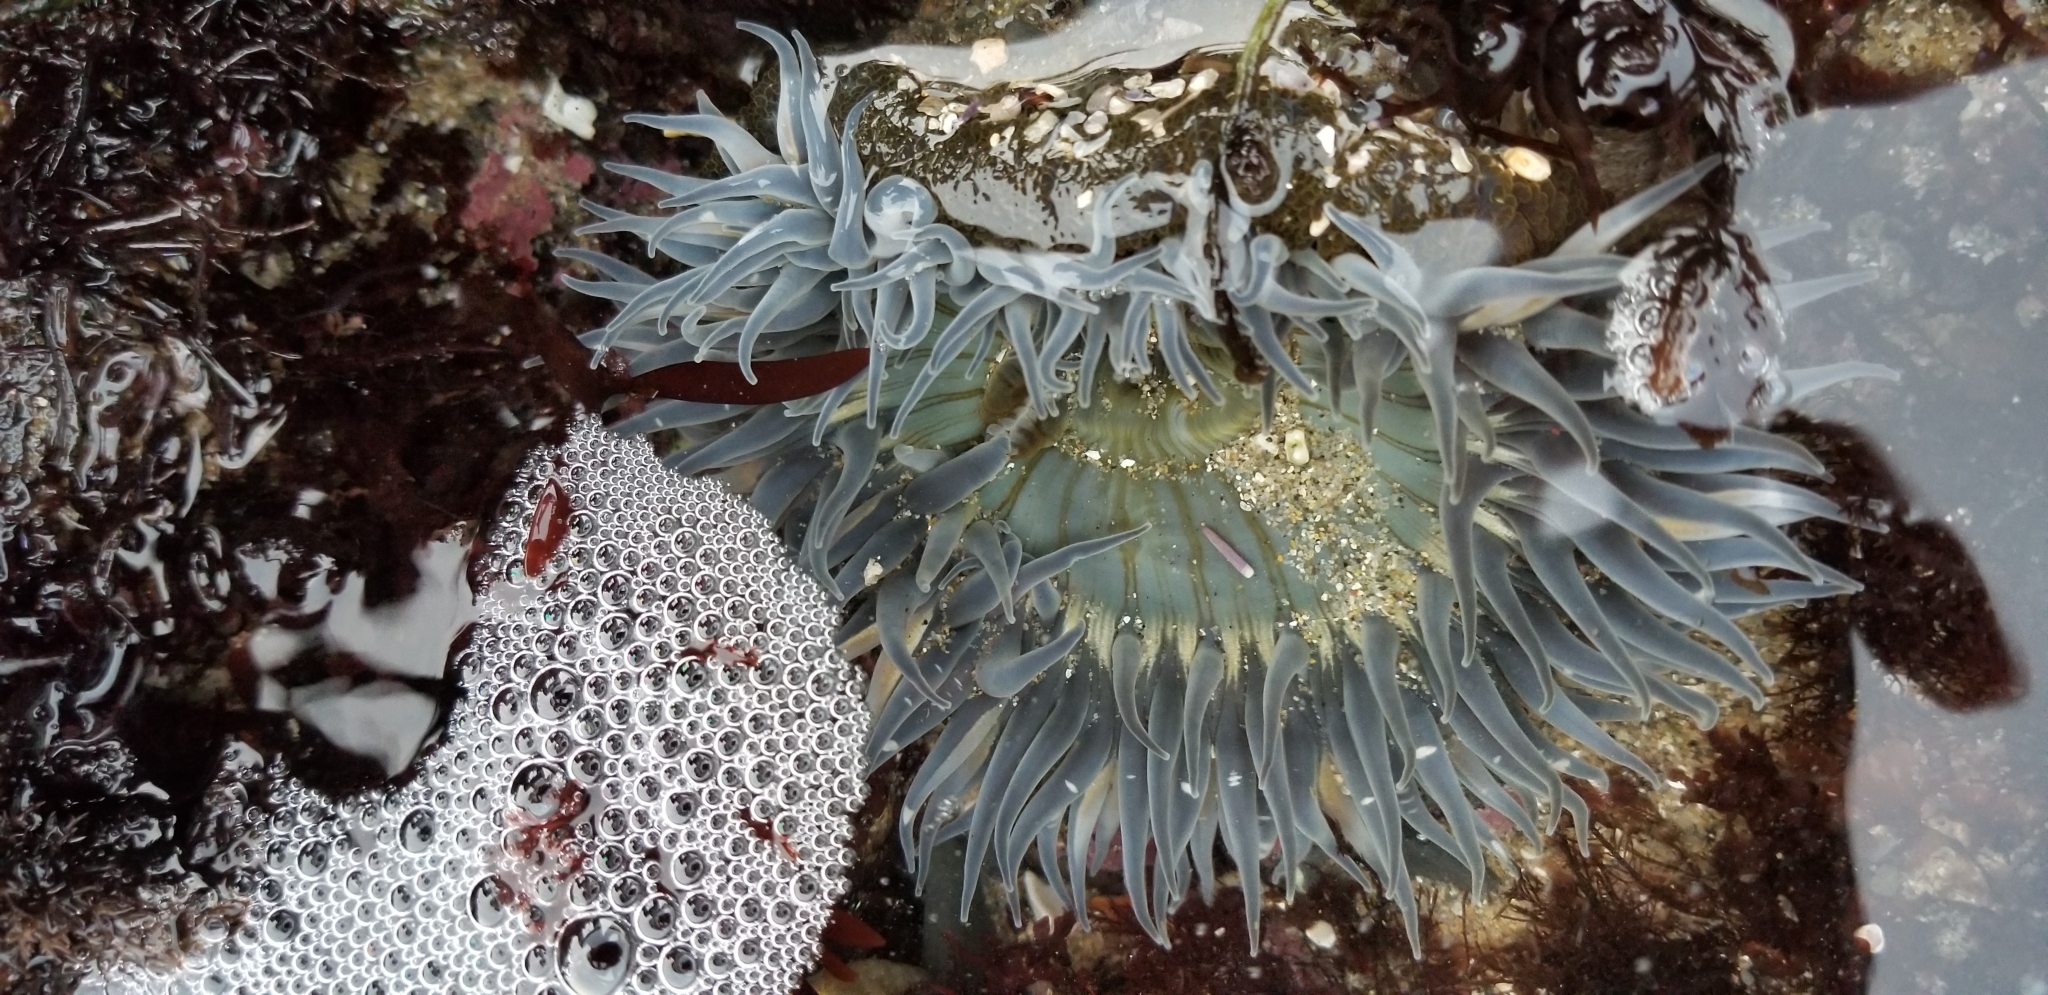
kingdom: Animalia
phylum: Cnidaria
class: Anthozoa
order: Actiniaria
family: Actiniidae
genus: Anthopleura
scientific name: Anthopleura sola
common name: Sun anemone
